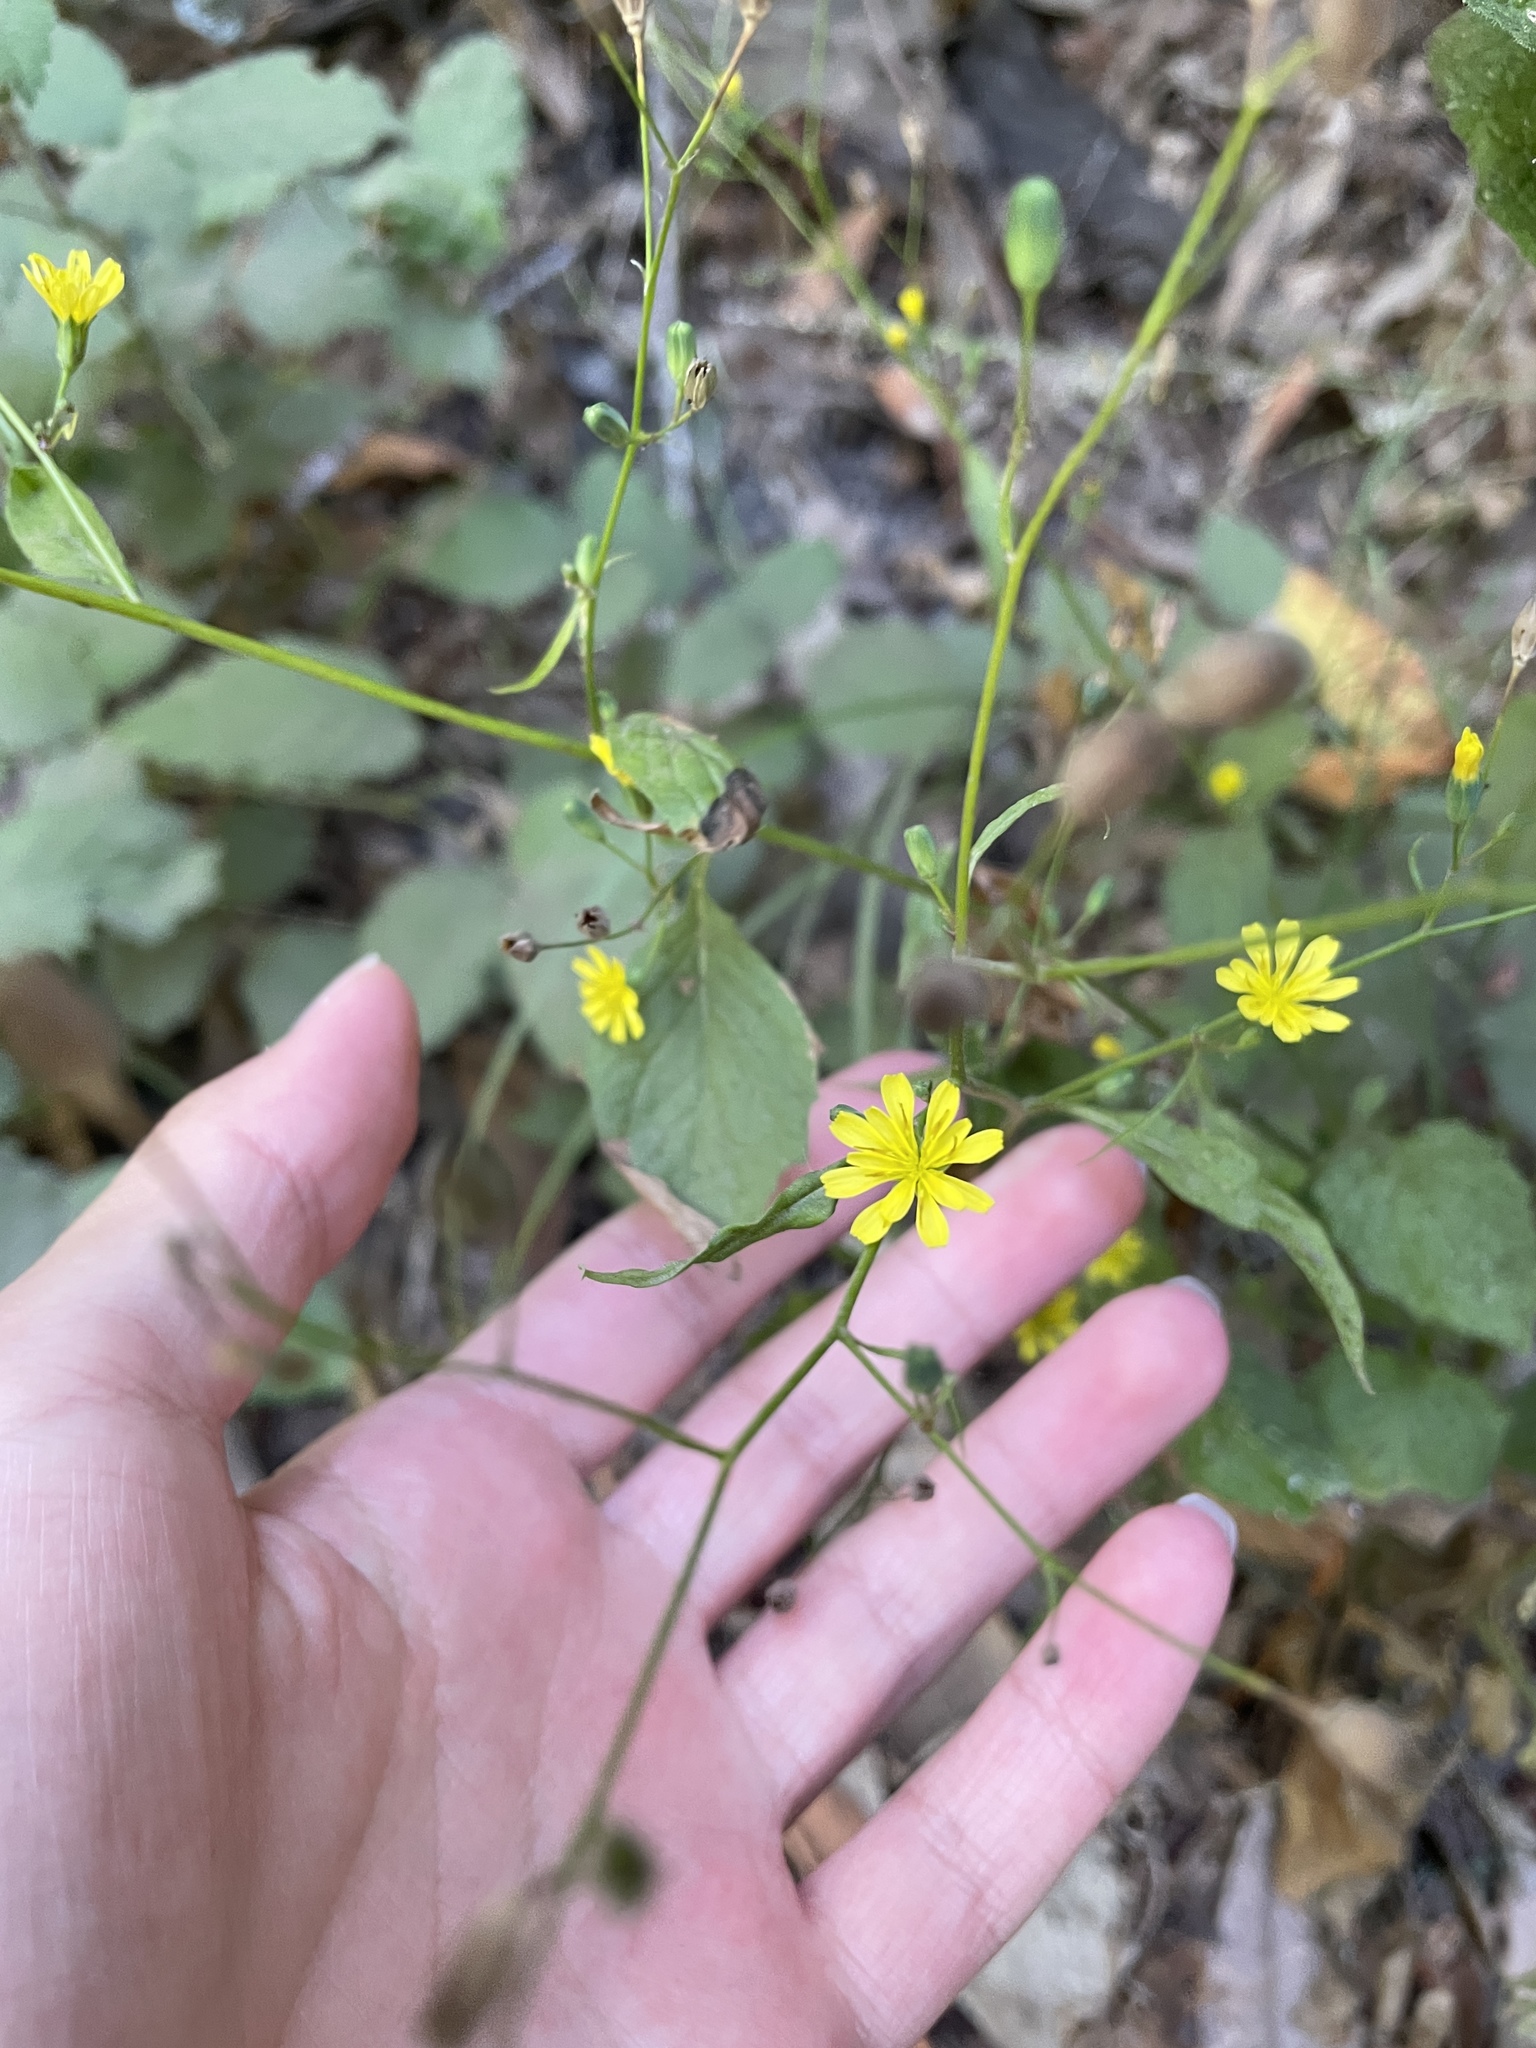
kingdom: Plantae
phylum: Tracheophyta
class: Magnoliopsida
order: Asterales
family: Asteraceae
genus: Lapsana
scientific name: Lapsana communis
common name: Nipplewort
